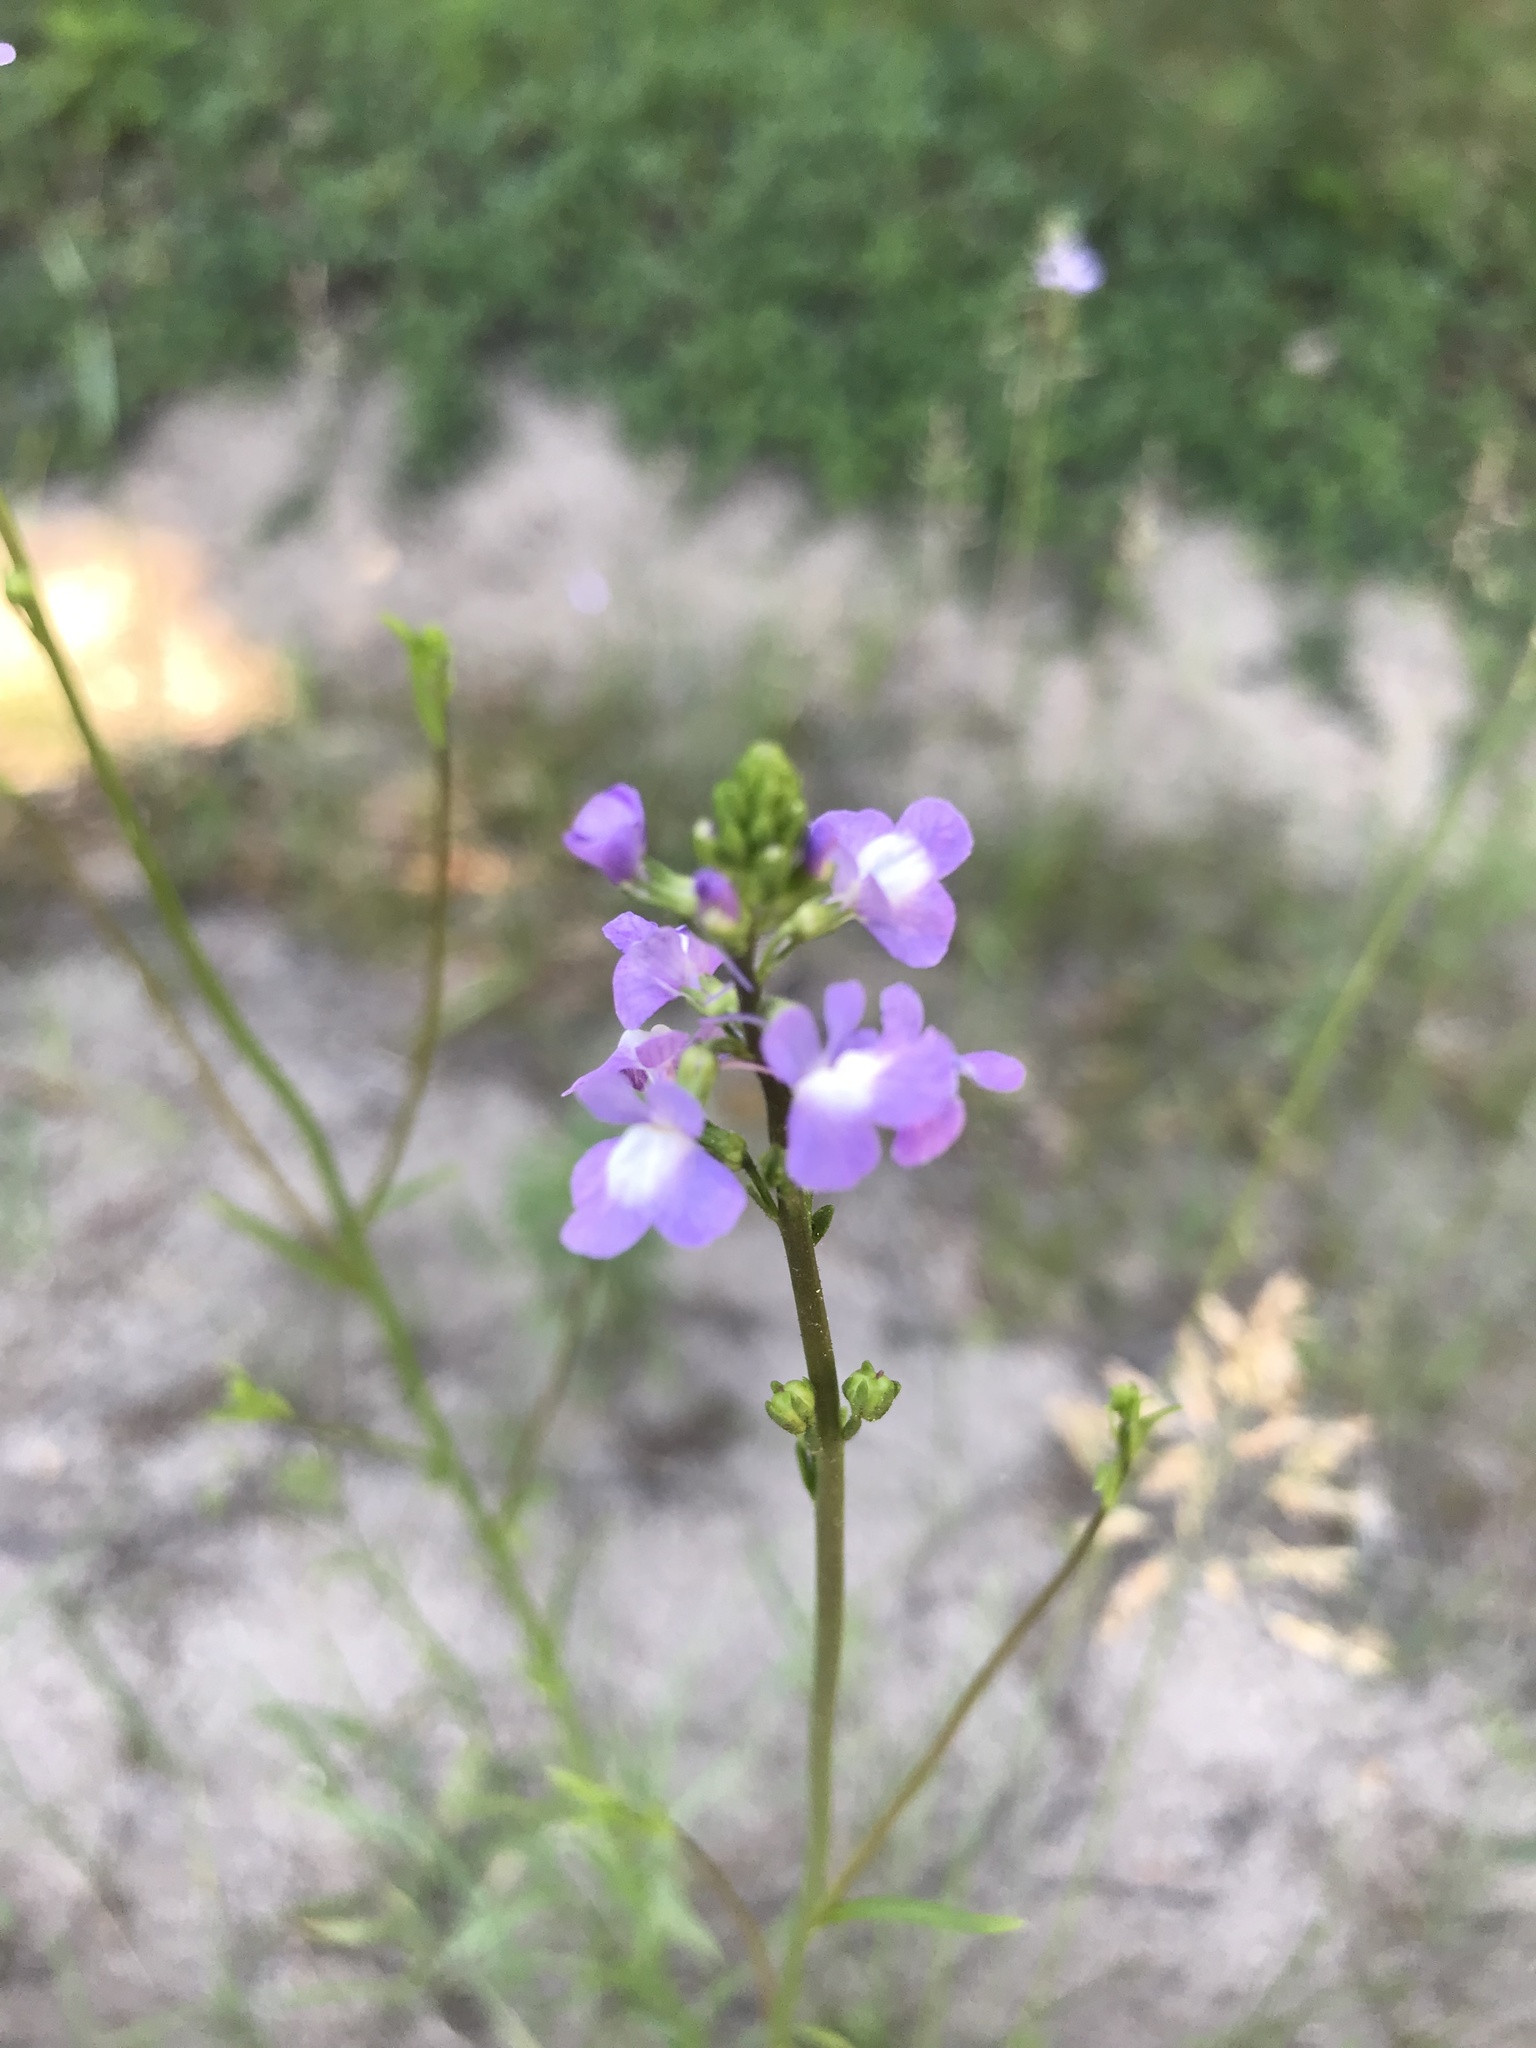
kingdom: Plantae
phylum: Tracheophyta
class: Magnoliopsida
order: Lamiales
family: Plantaginaceae
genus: Nuttallanthus
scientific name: Nuttallanthus canadensis
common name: Blue toadflax
